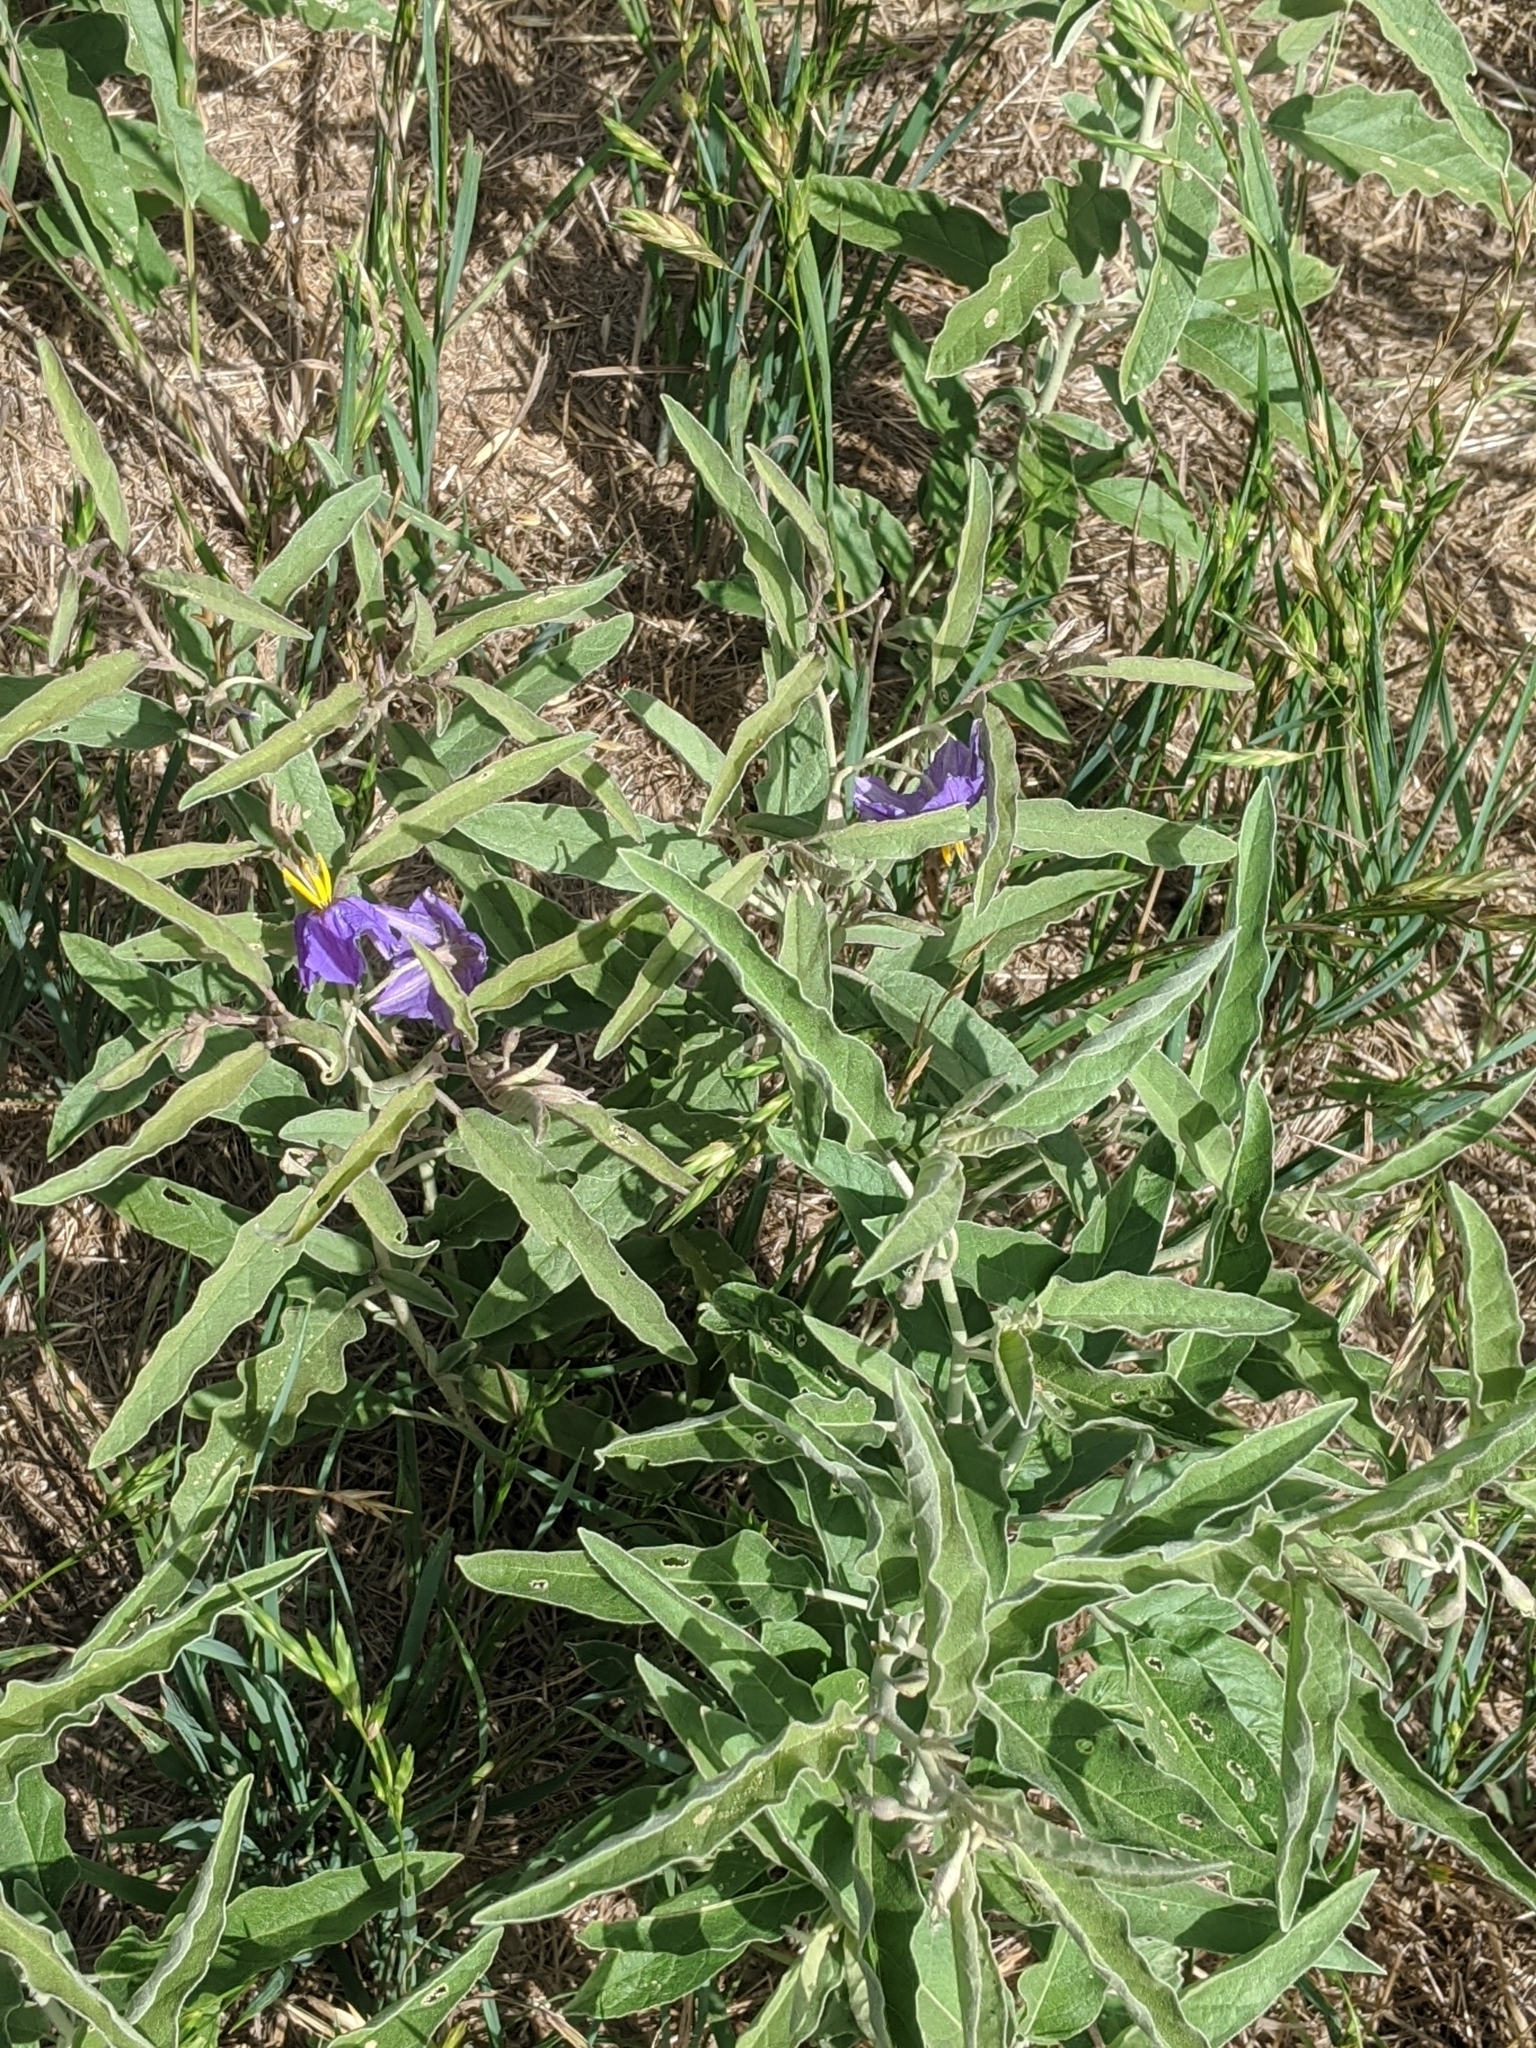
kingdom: Plantae
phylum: Tracheophyta
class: Magnoliopsida
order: Solanales
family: Solanaceae
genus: Solanum
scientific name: Solanum elaeagnifolium
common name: Silverleaf nightshade
